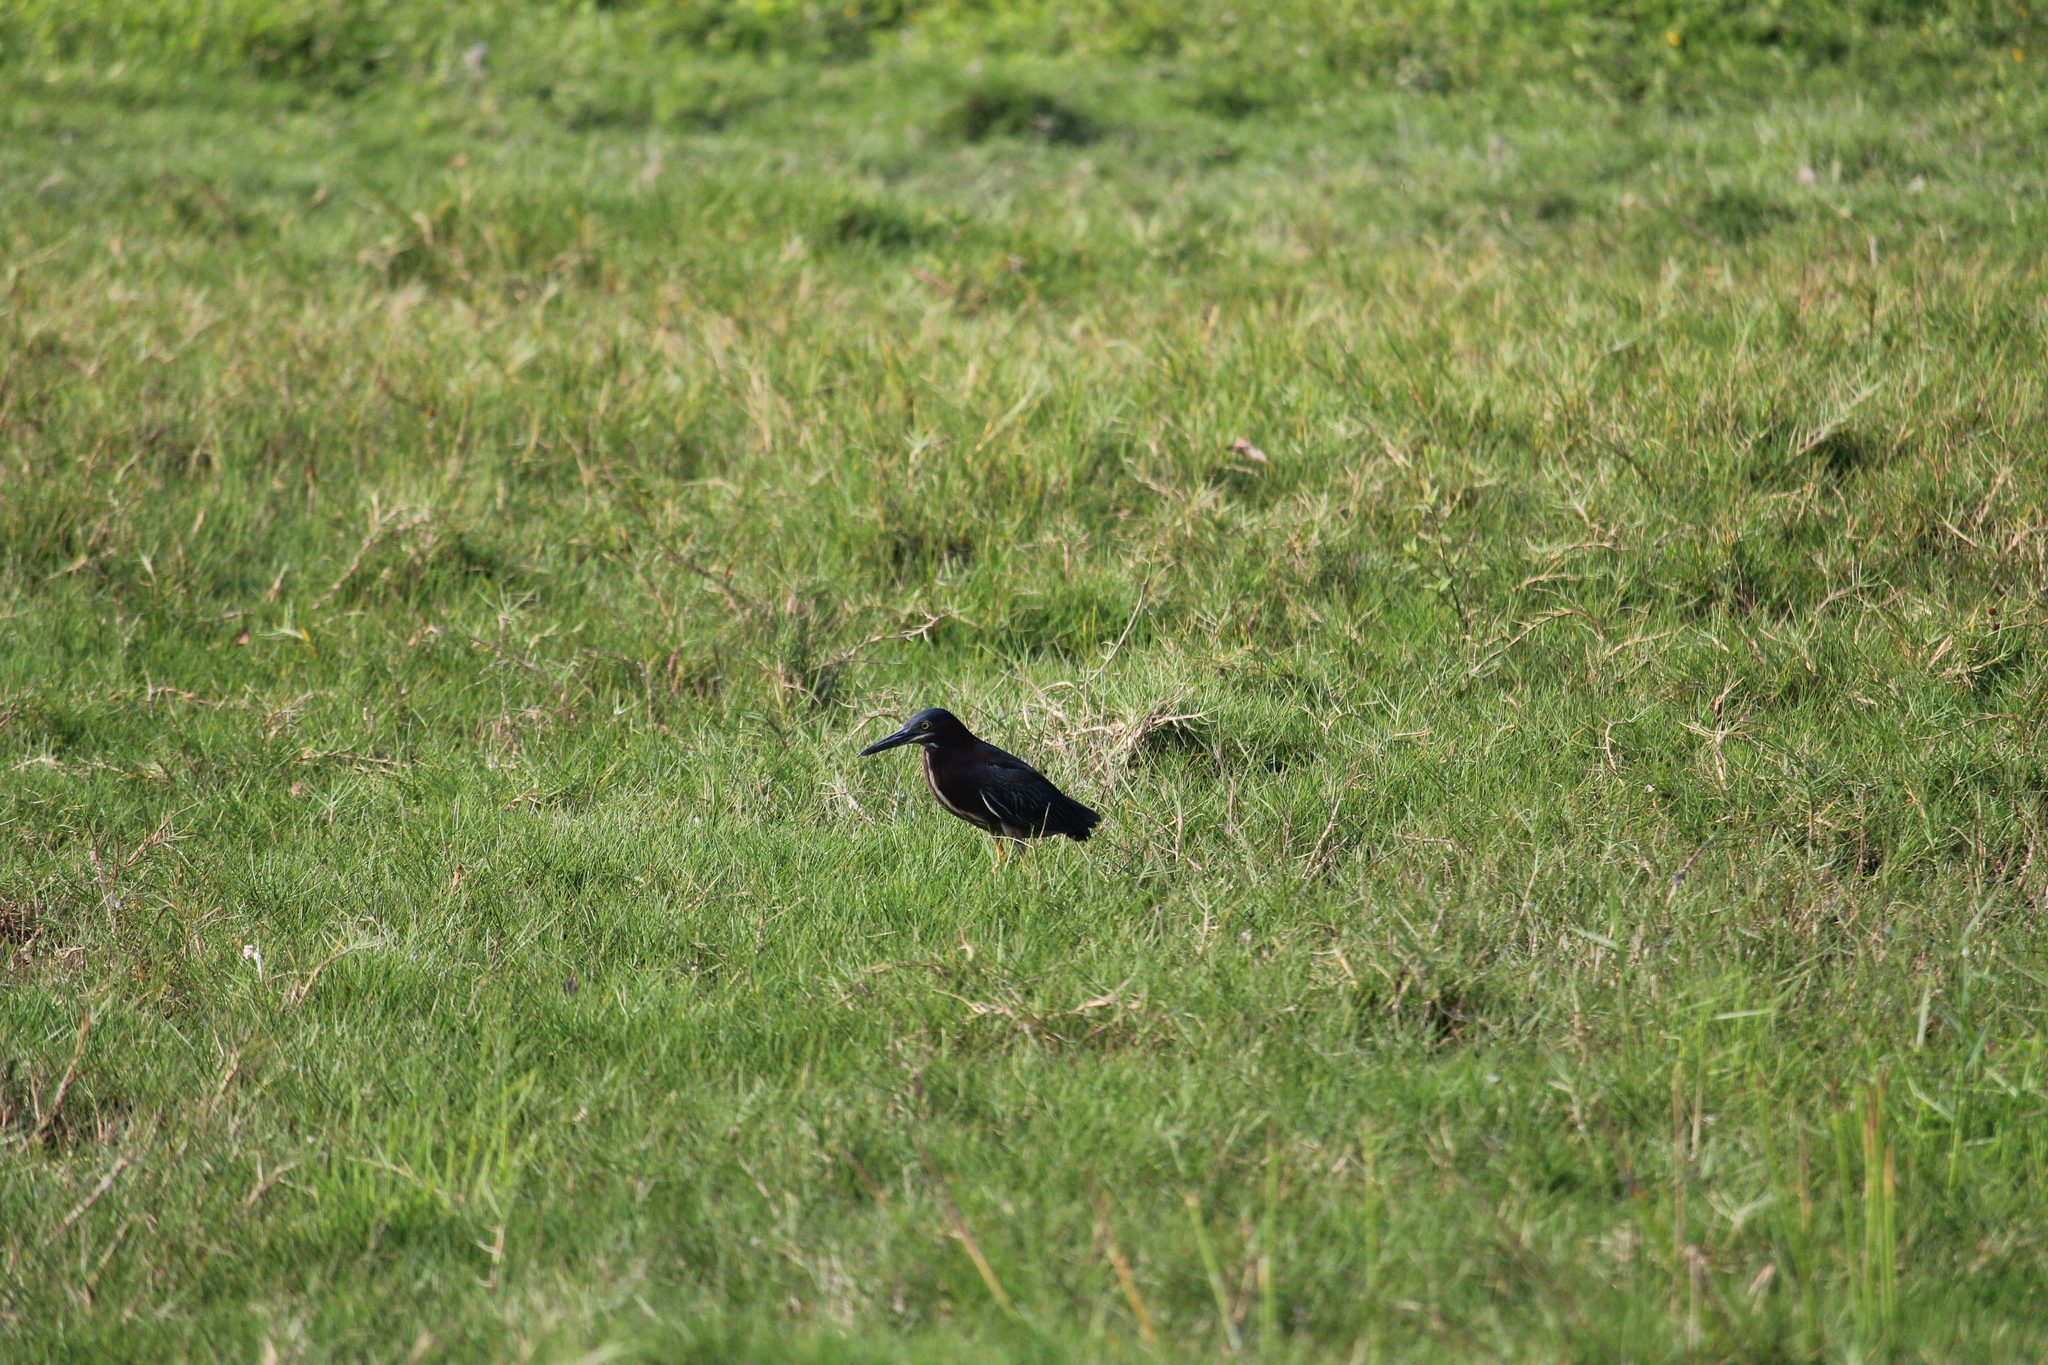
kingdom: Animalia
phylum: Chordata
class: Aves
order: Pelecaniformes
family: Ardeidae
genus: Butorides
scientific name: Butorides virescens
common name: Green heron
